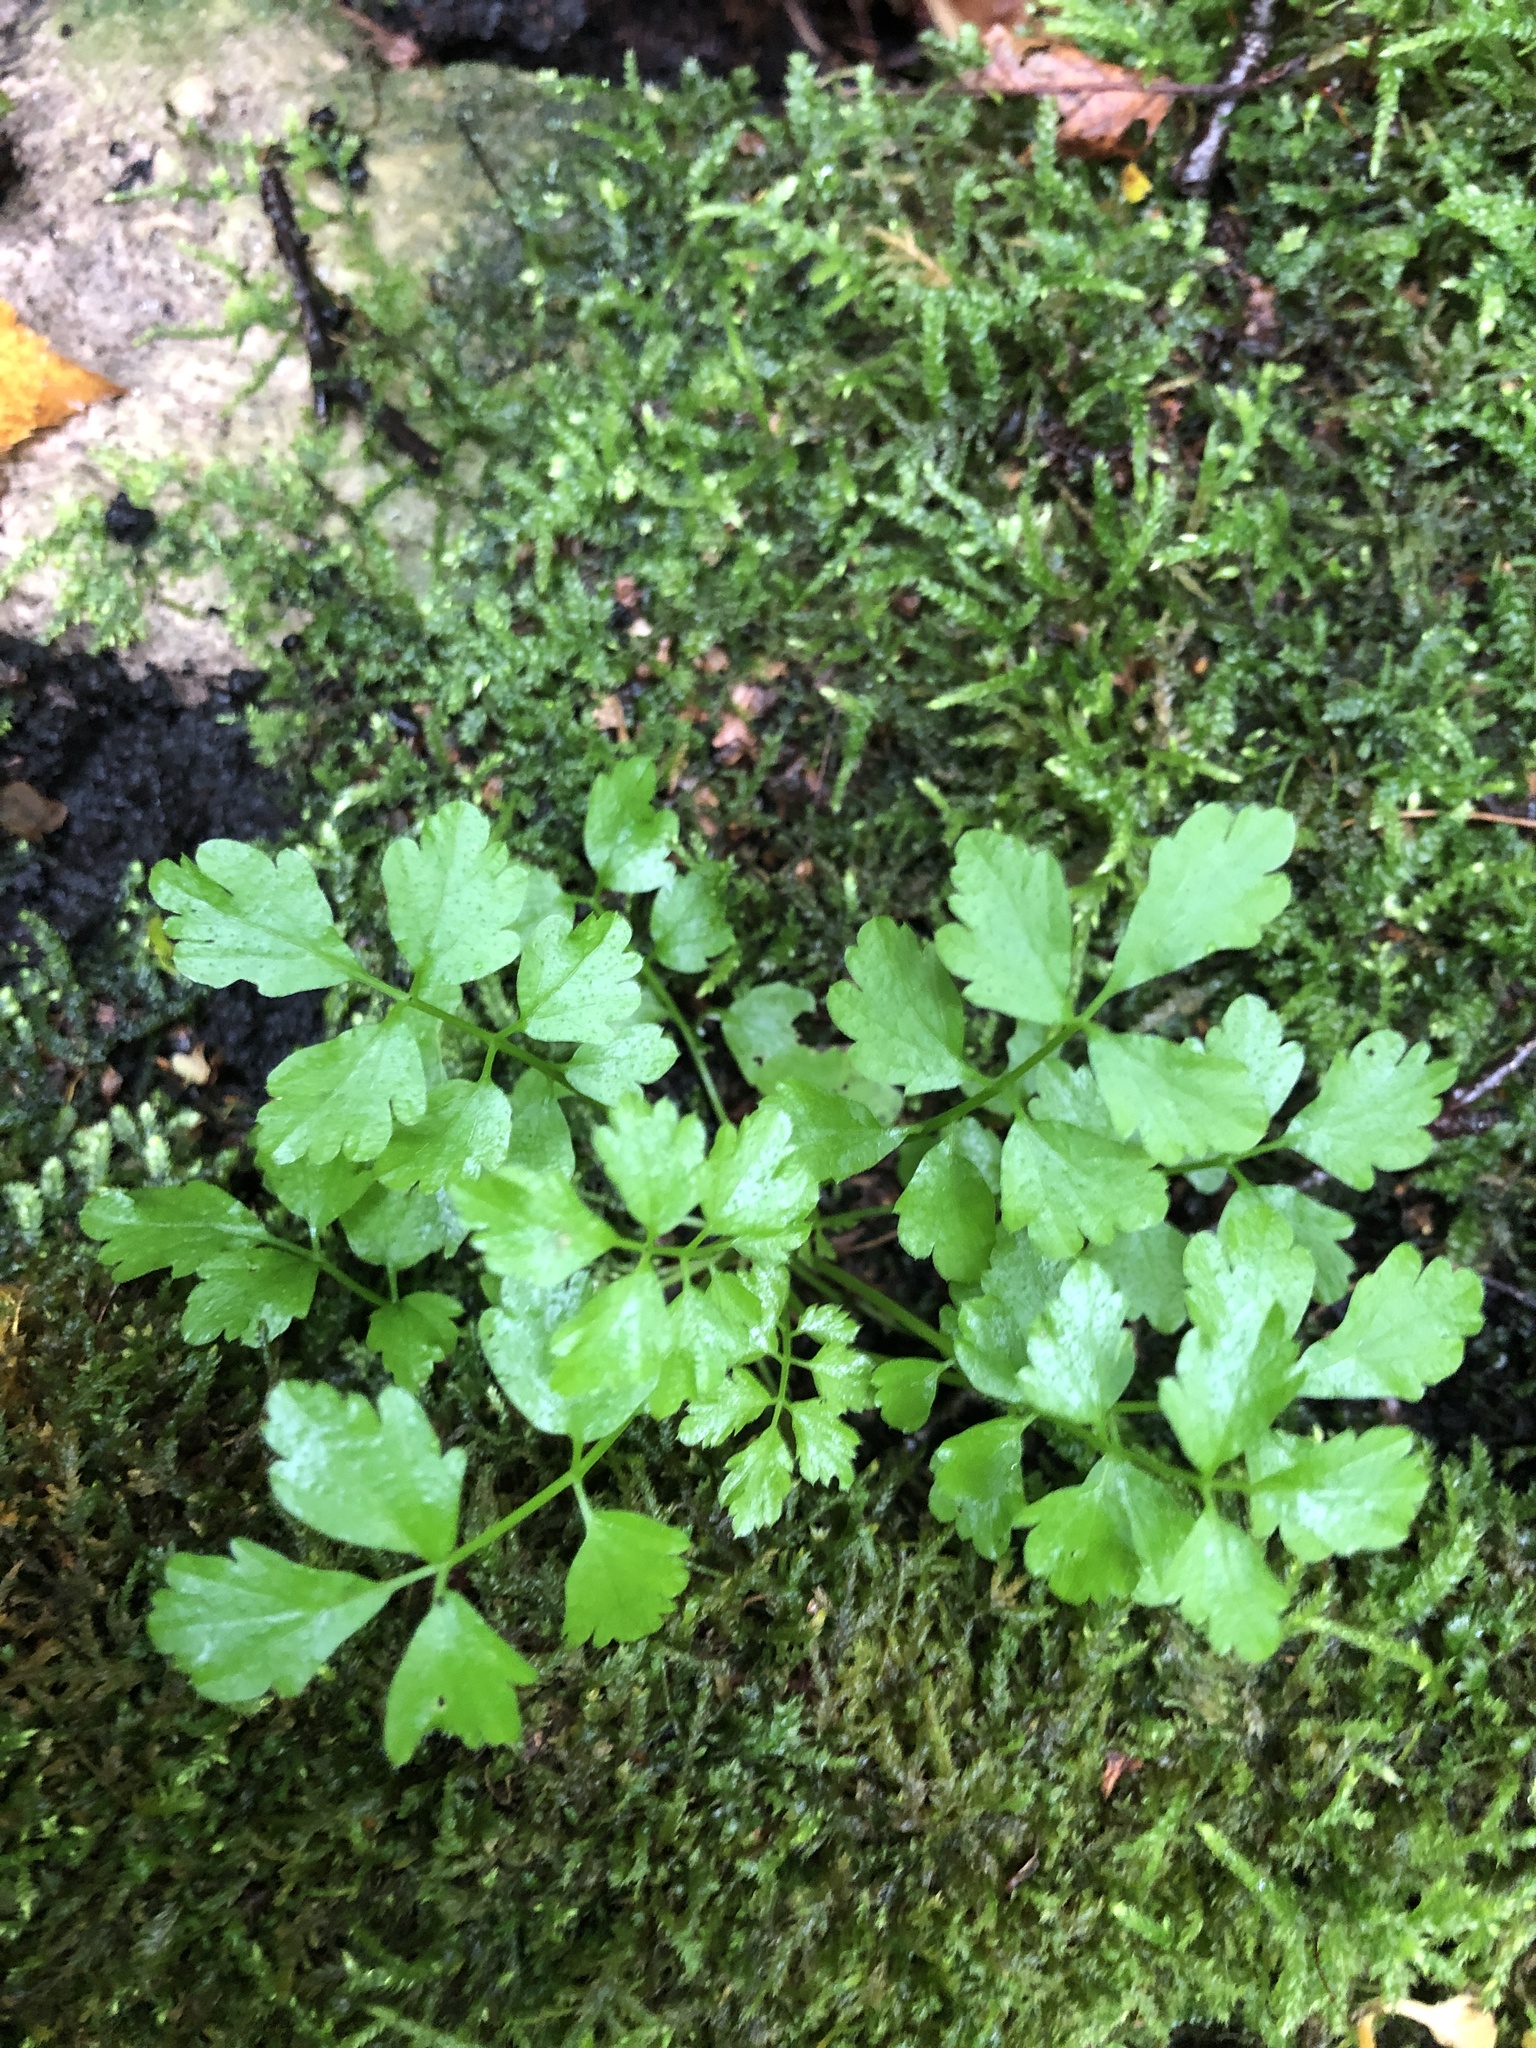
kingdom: Plantae
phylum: Tracheophyta
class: Magnoliopsida
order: Brassicales
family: Brassicaceae
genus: Cardamine
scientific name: Cardamine impatiens
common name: Narrow-leaved bitter-cress
